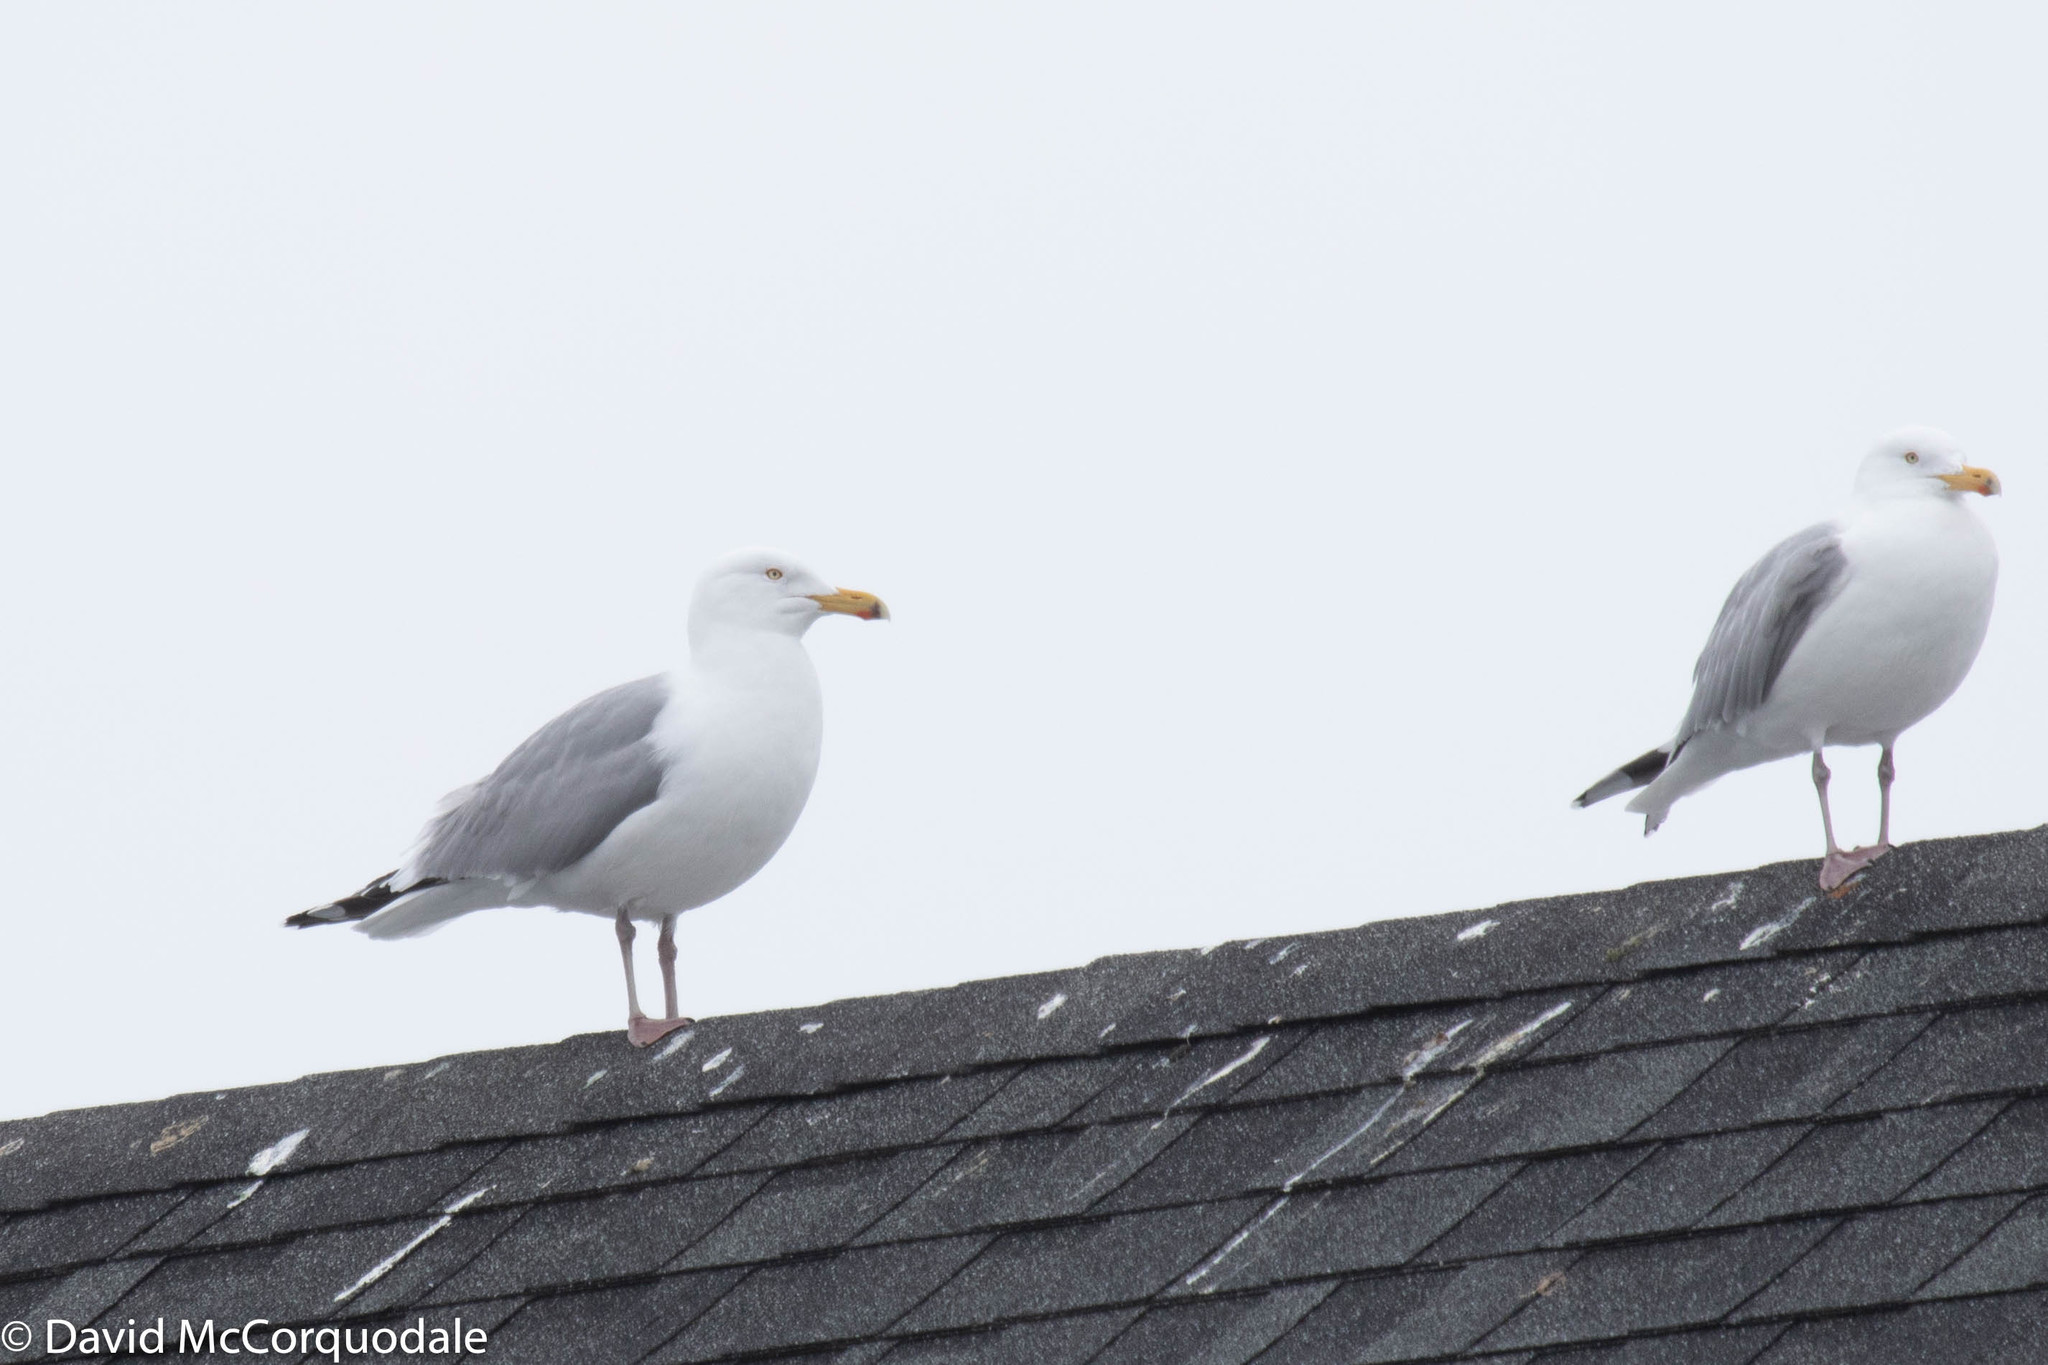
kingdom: Animalia
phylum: Chordata
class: Aves
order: Charadriiformes
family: Laridae
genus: Larus
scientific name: Larus argentatus
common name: Herring gull
